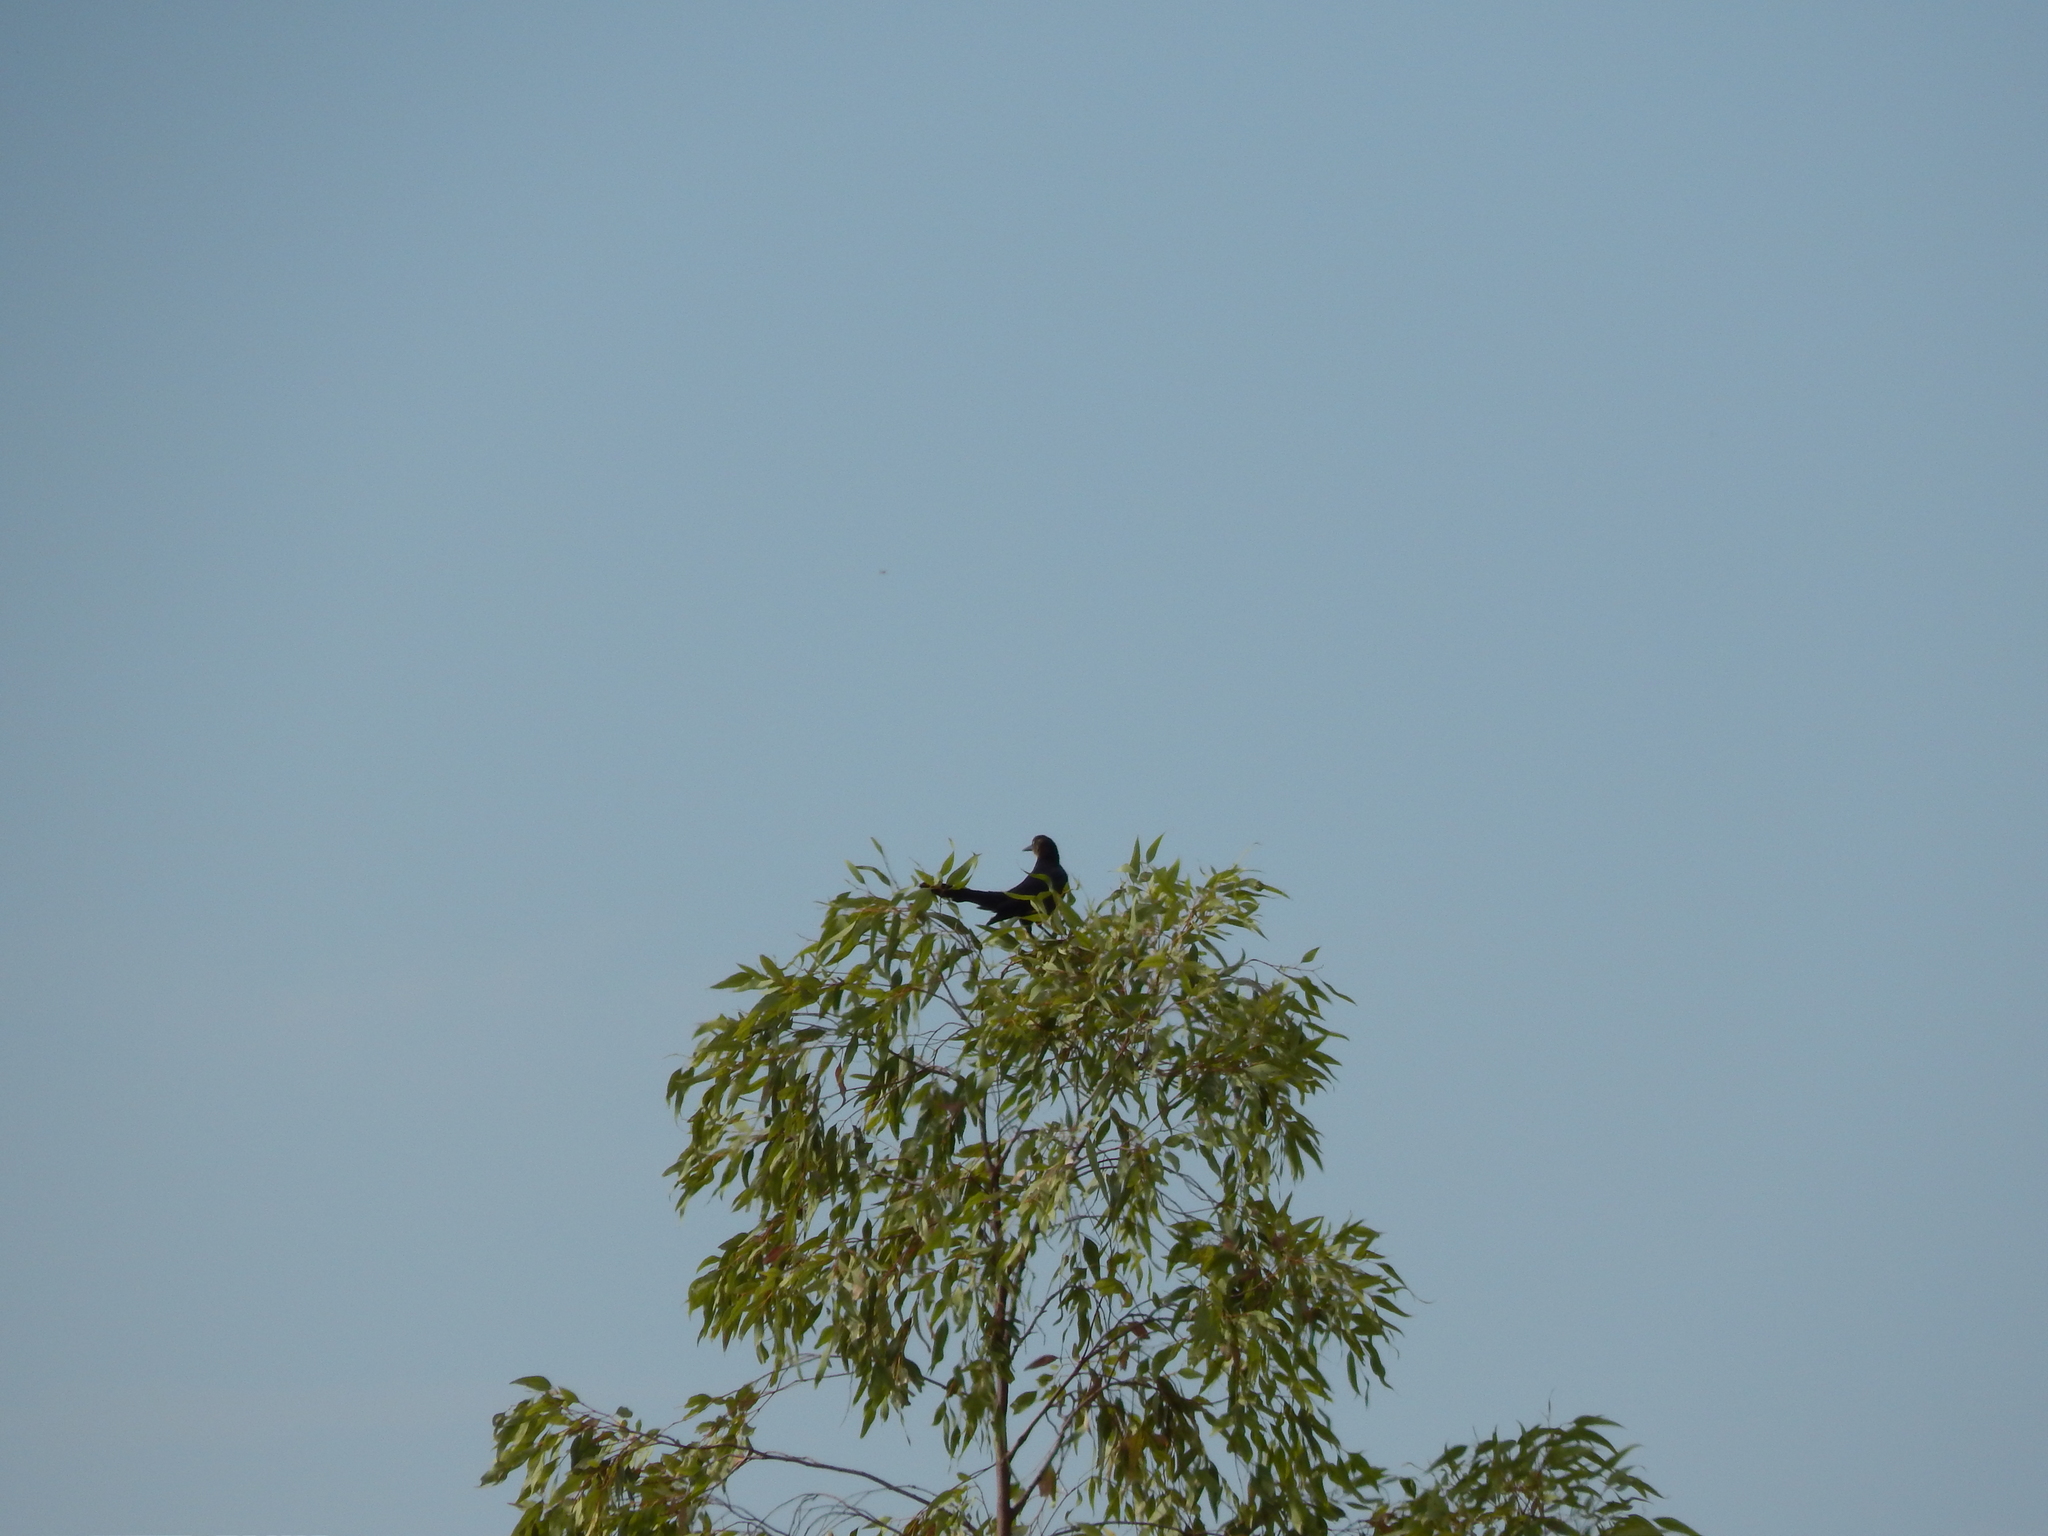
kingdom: Animalia
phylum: Chordata
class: Aves
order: Passeriformes
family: Icteridae
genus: Quiscalus
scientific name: Quiscalus mexicanus
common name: Great-tailed grackle
